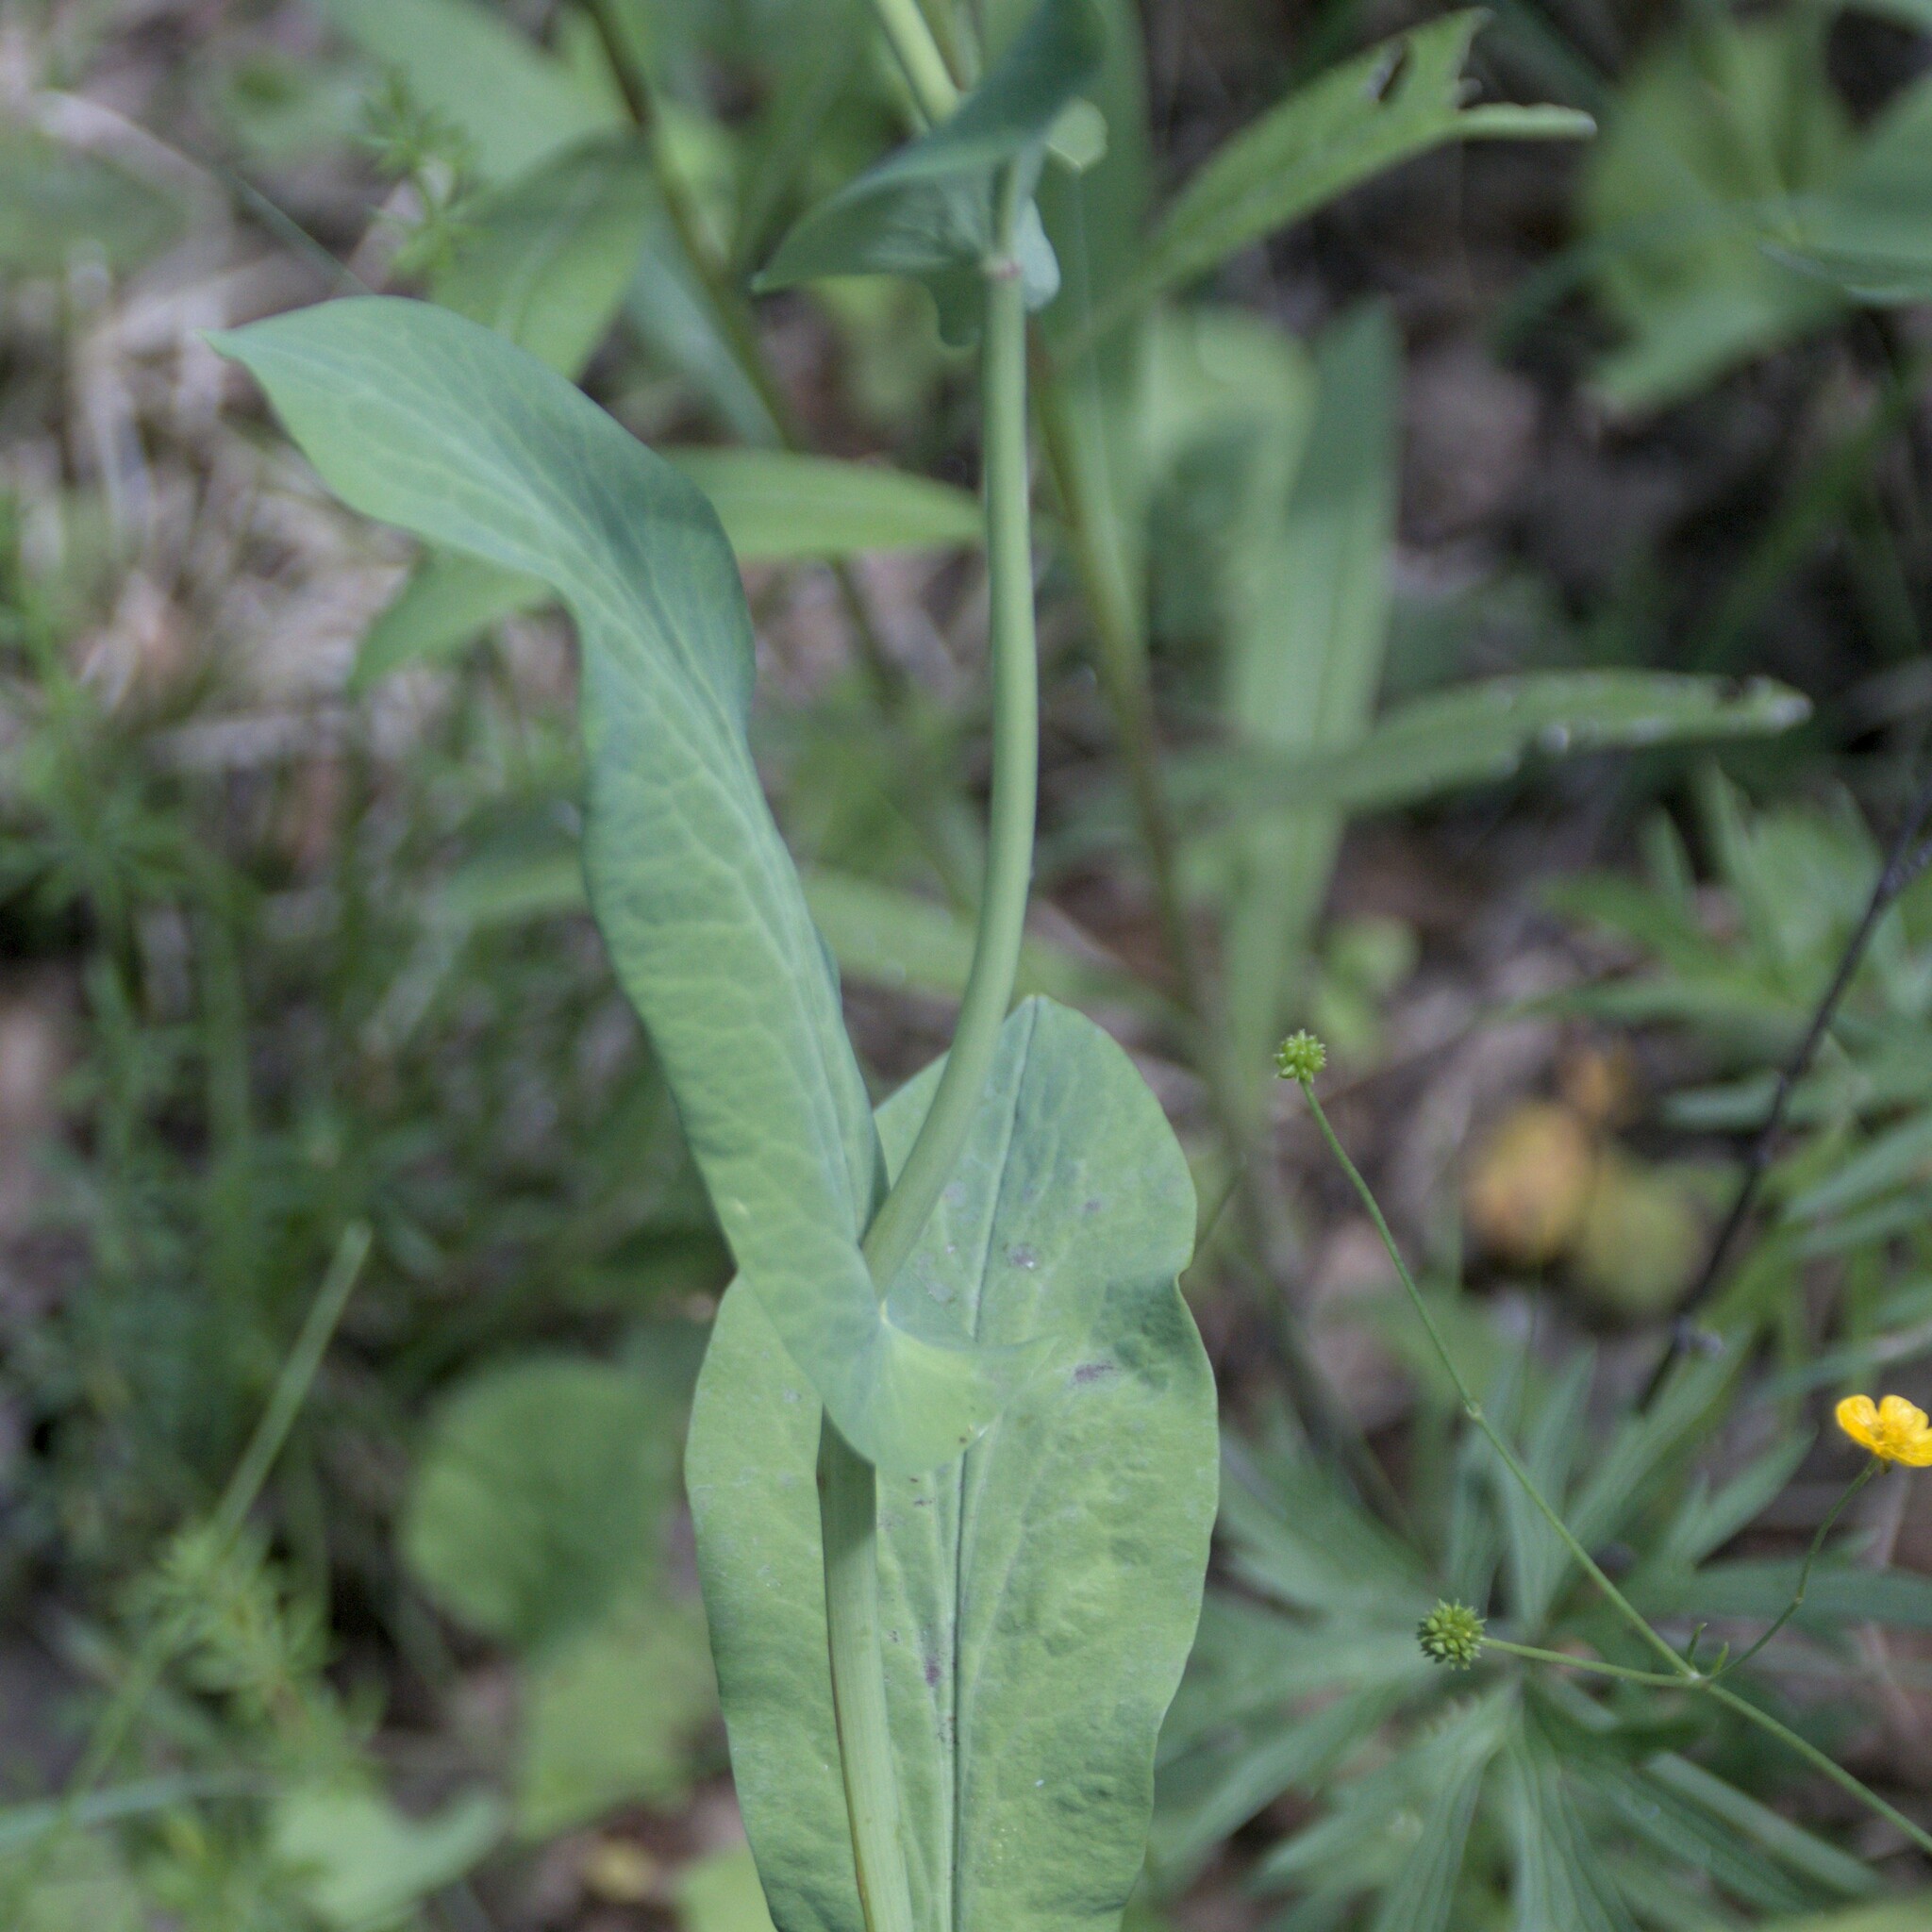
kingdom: Plantae
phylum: Tracheophyta
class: Magnoliopsida
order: Apiales
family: Apiaceae
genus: Bupleurum
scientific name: Bupleurum aureum
